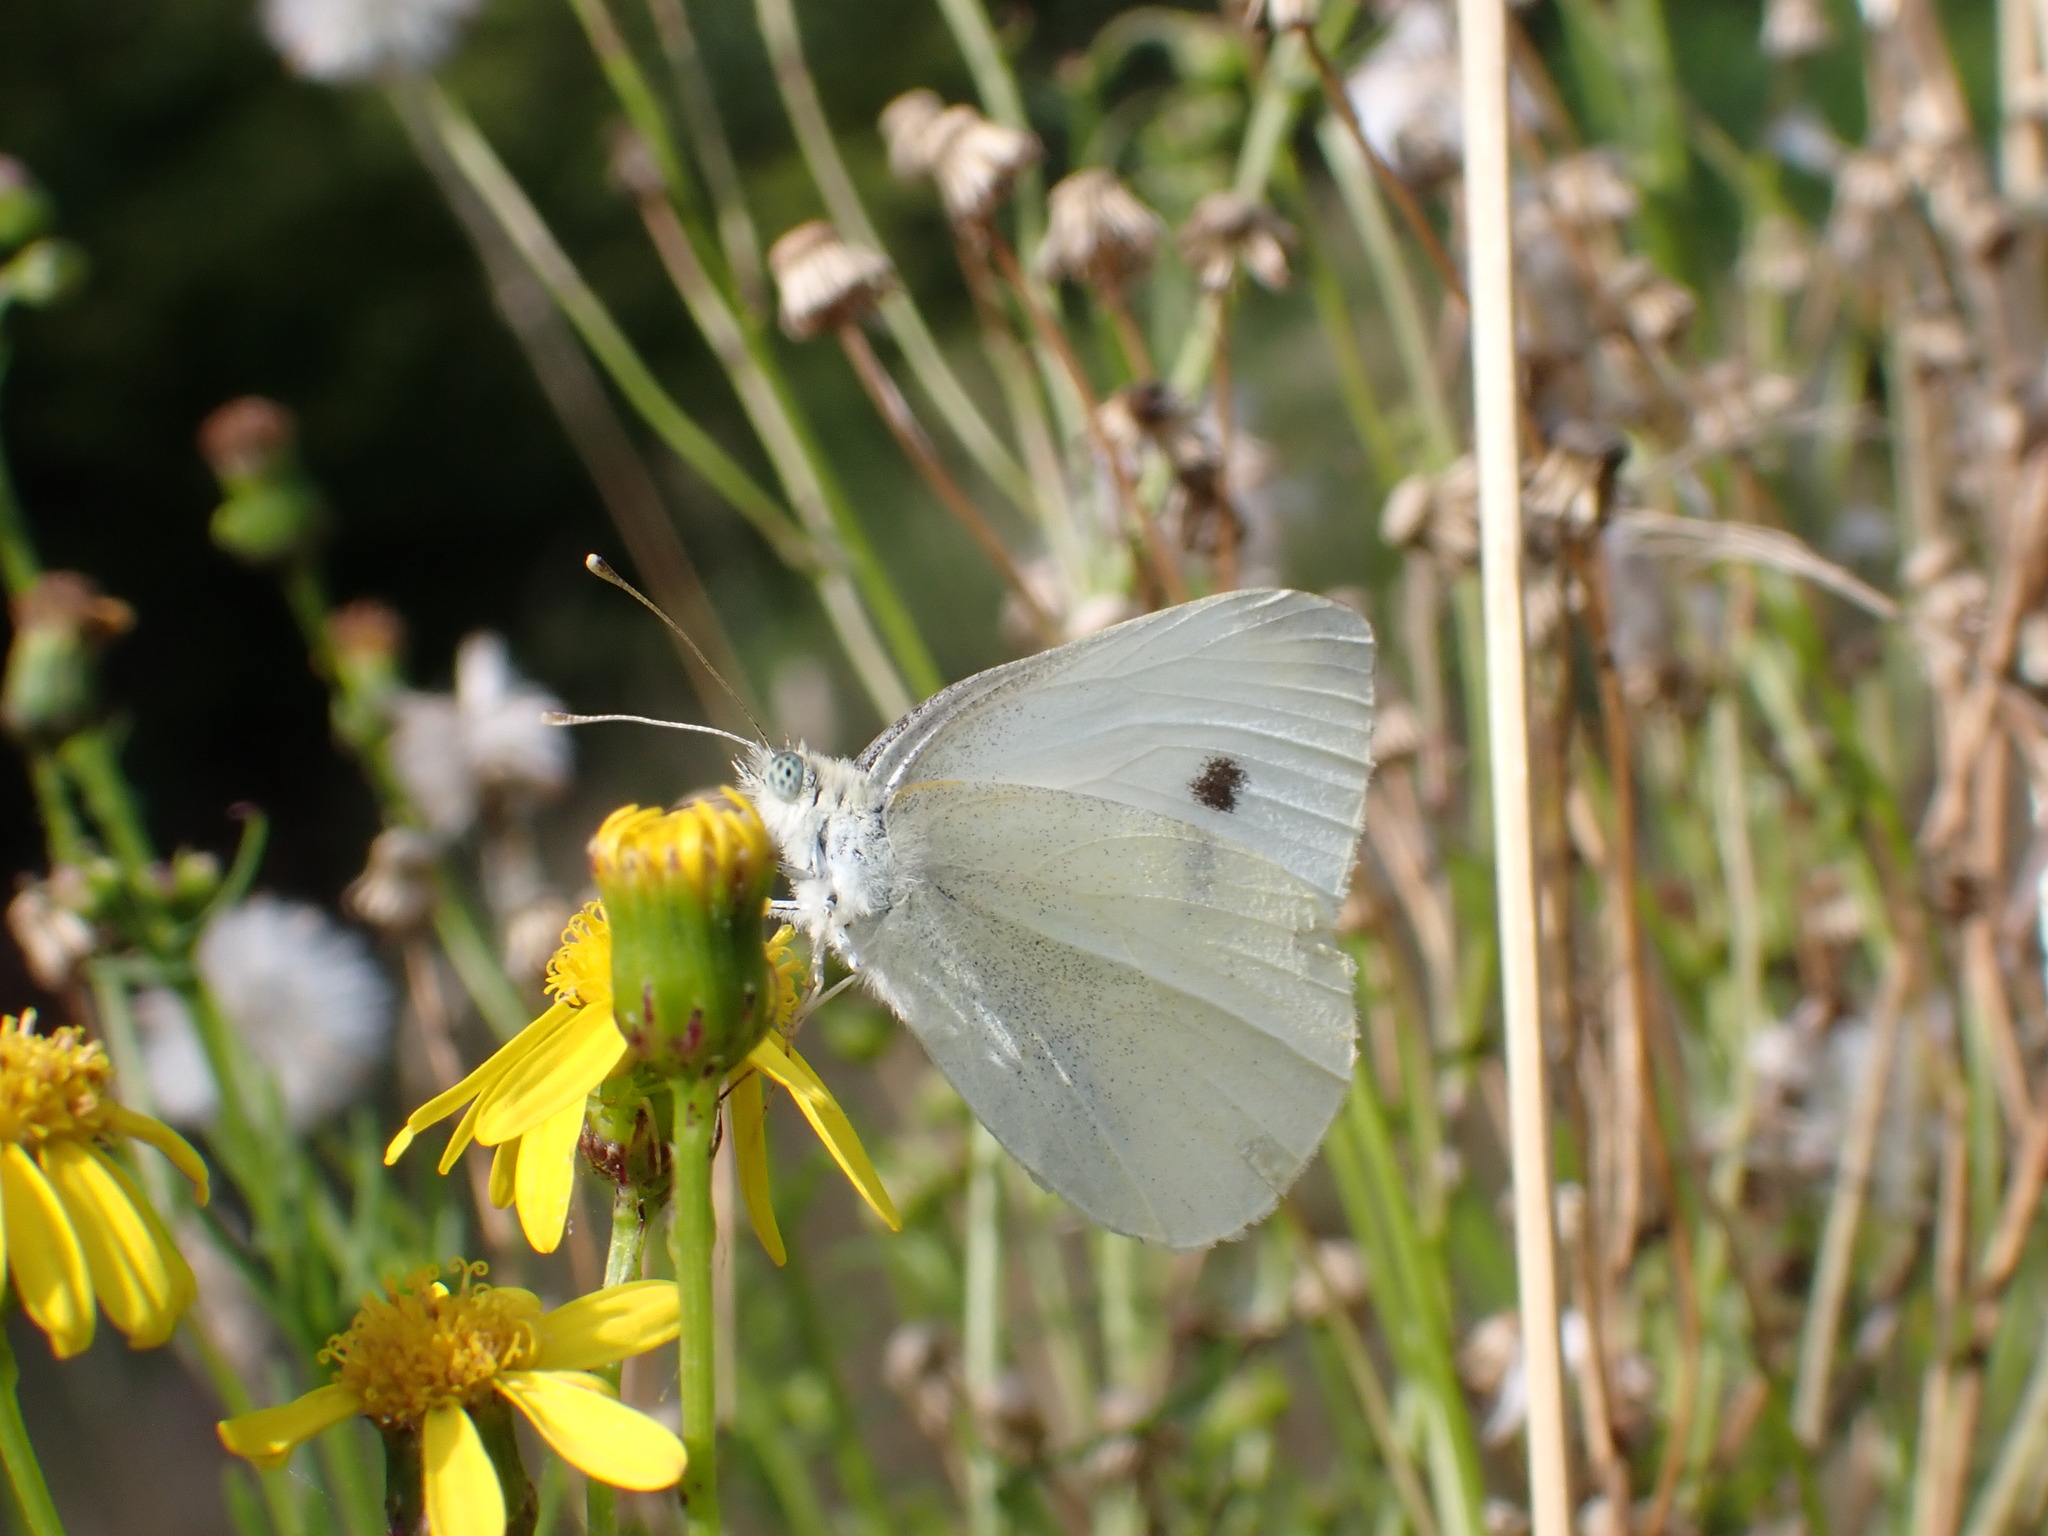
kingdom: Animalia
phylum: Arthropoda
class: Insecta
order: Lepidoptera
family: Pieridae
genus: Pieris
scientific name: Pieris rapae
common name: Small white
